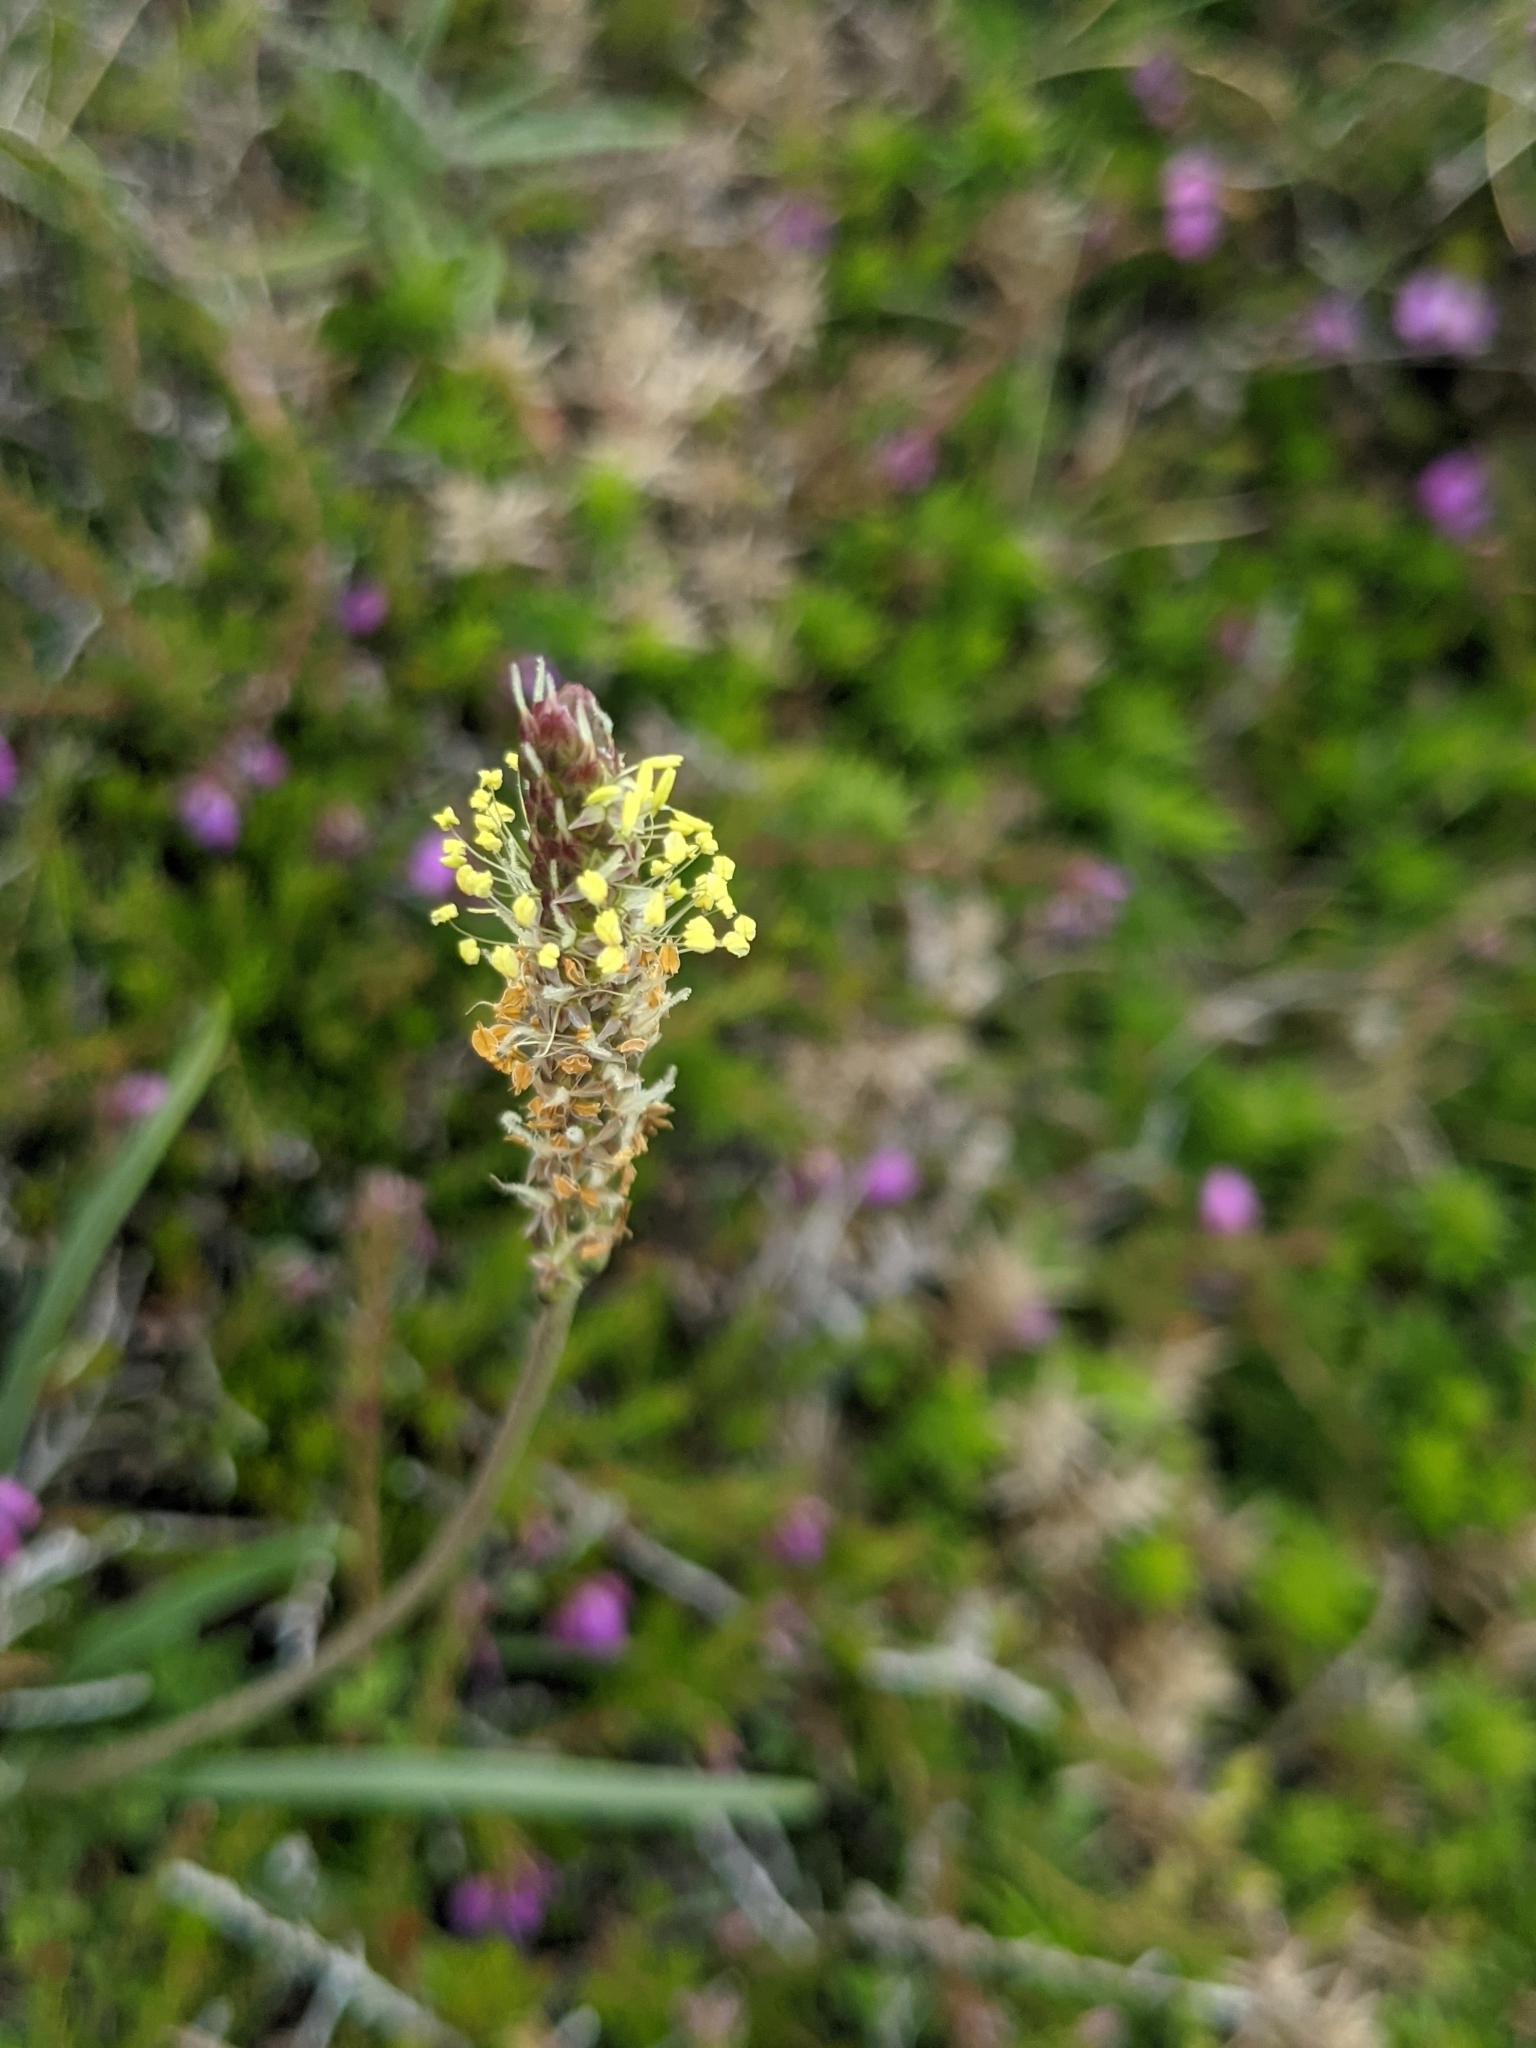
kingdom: Plantae
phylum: Tracheophyta
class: Magnoliopsida
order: Lamiales
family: Plantaginaceae
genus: Plantago
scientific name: Plantago maritima
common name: Sea plantain
